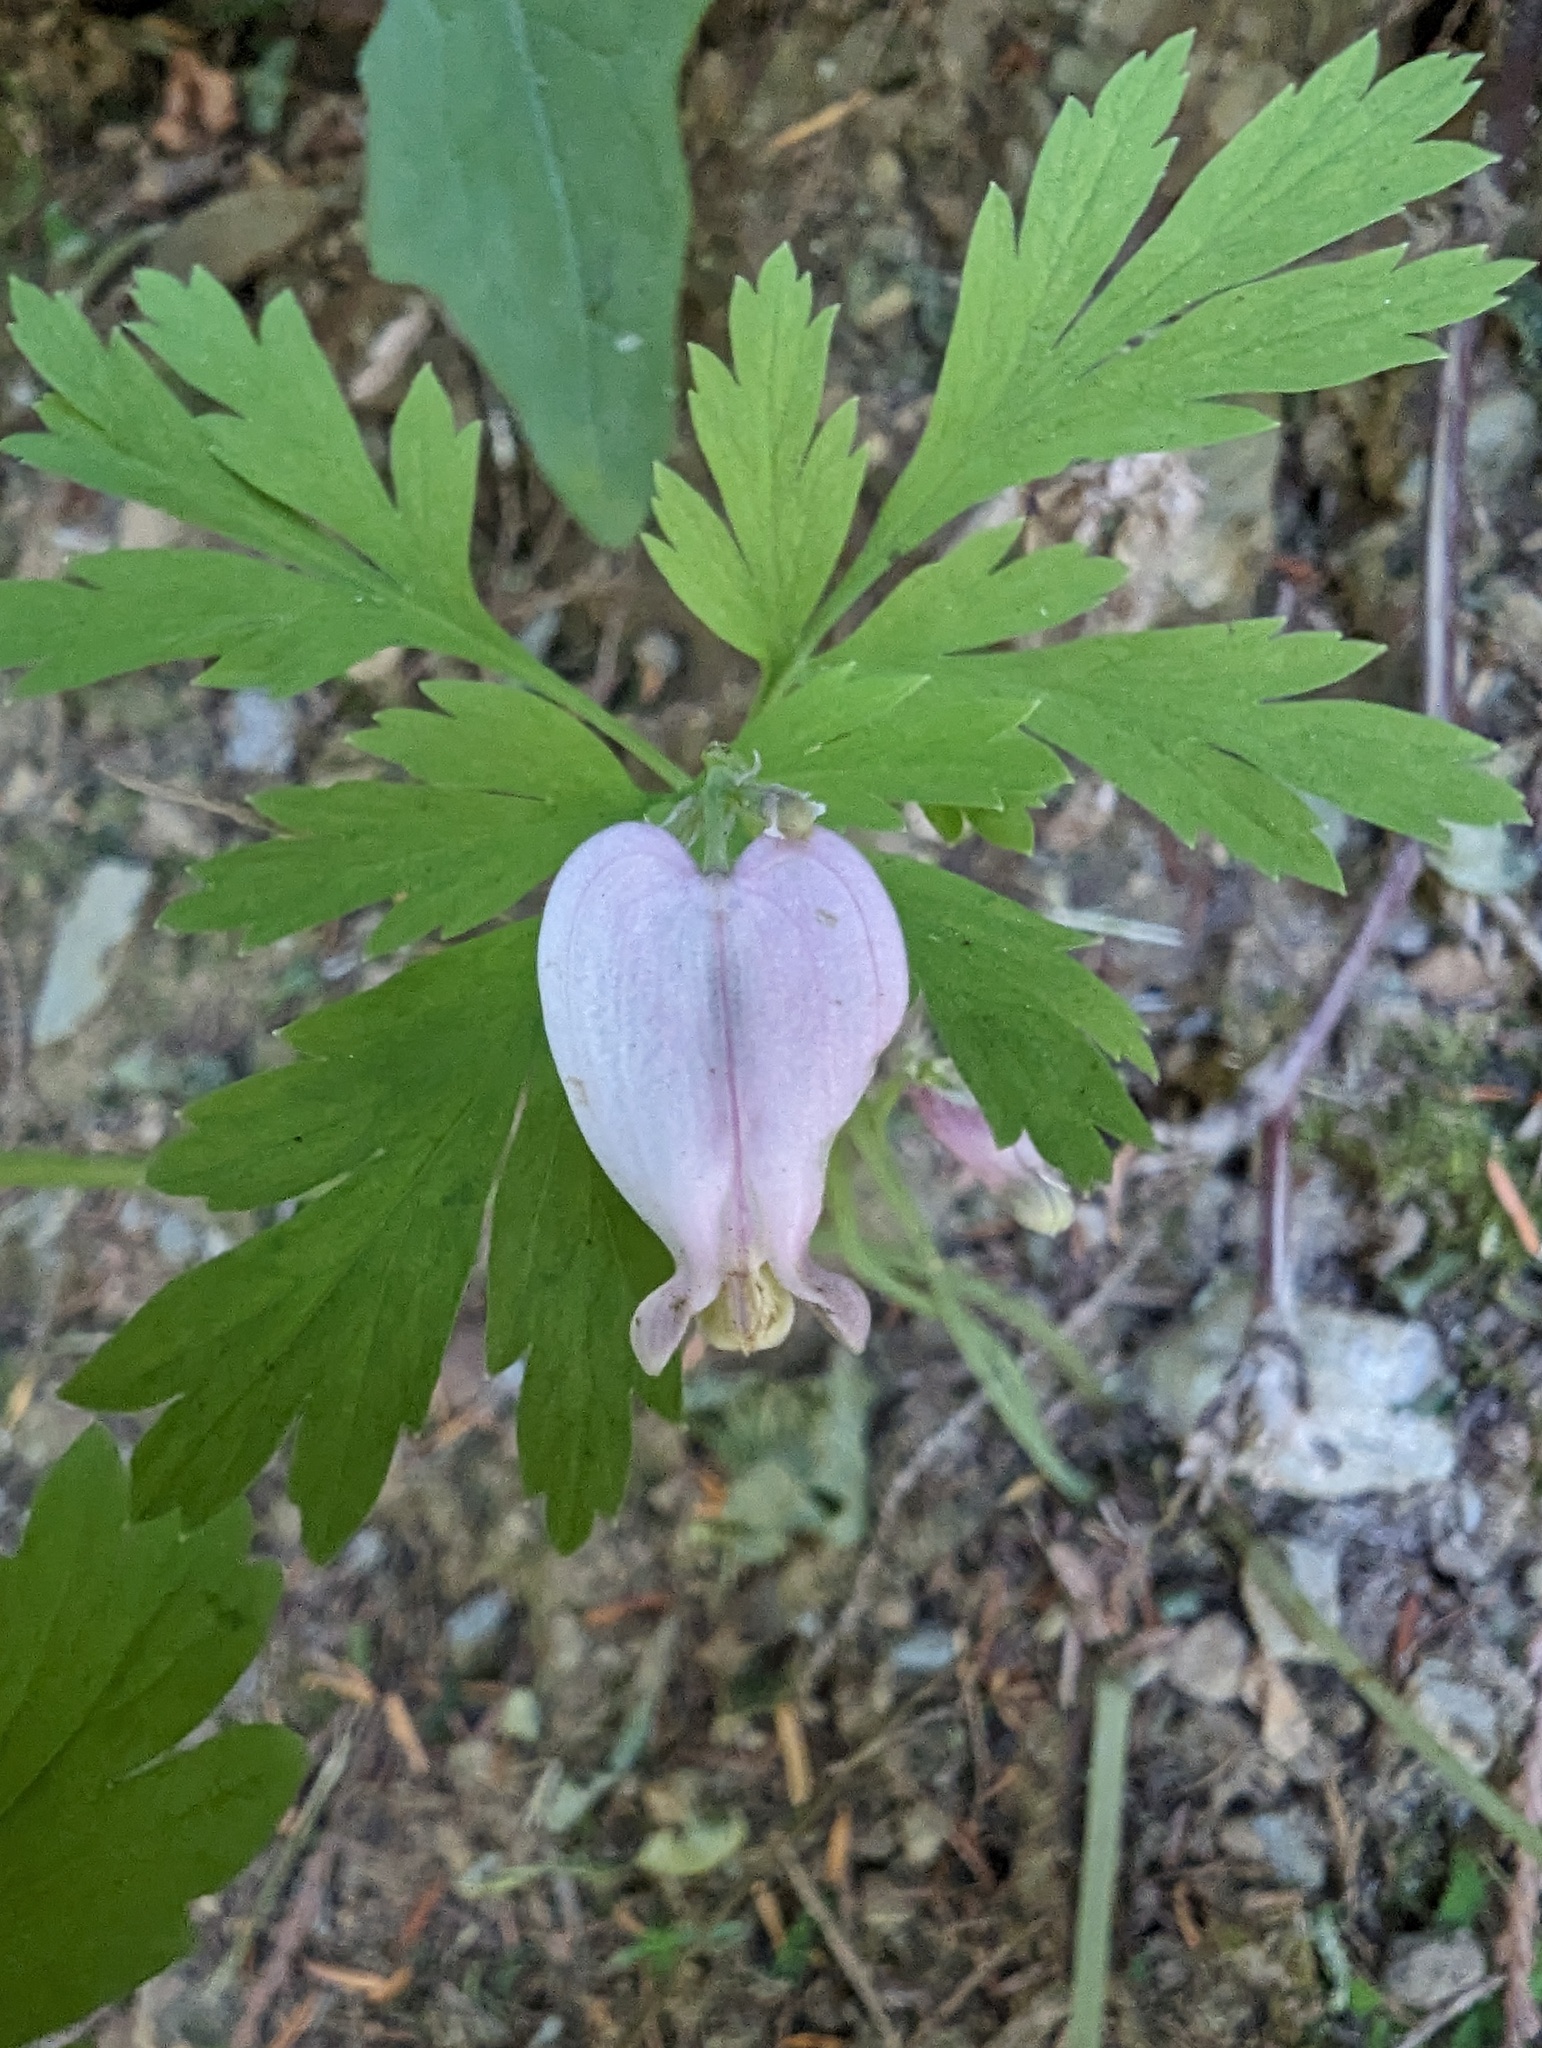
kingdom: Plantae
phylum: Tracheophyta
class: Magnoliopsida
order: Ranunculales
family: Papaveraceae
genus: Dicentra
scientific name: Dicentra formosa
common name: Bleeding-heart
